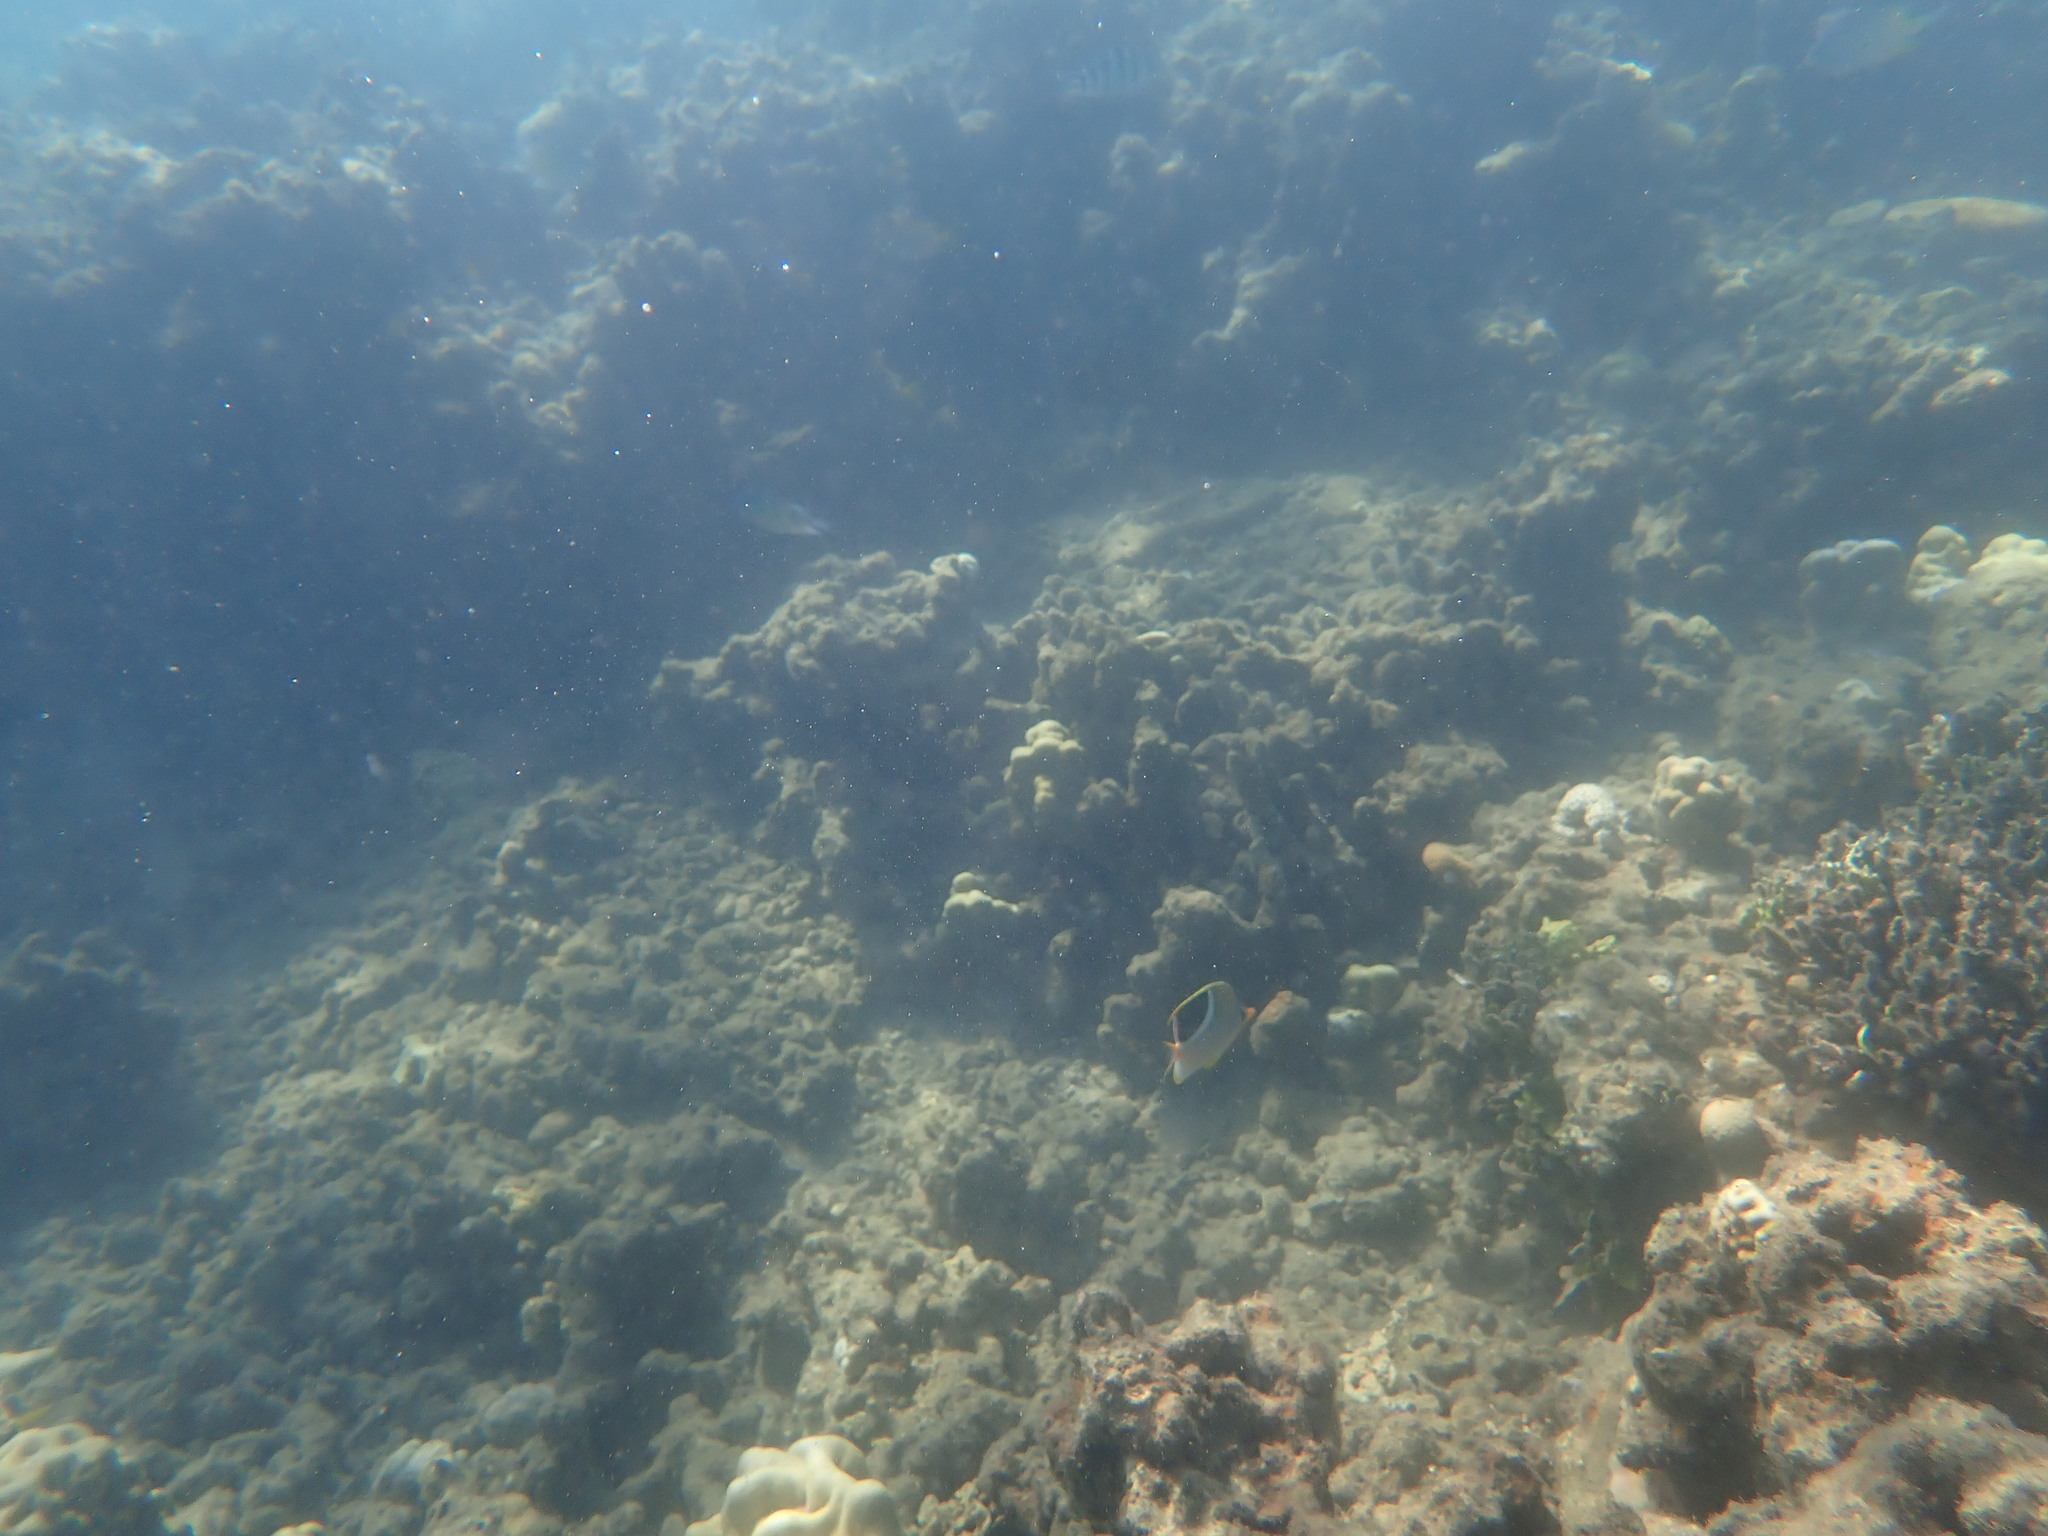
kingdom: Animalia
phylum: Chordata
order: Perciformes
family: Chaetodontidae
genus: Chaetodon
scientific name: Chaetodon ephippium
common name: Saddled butterflyfish
